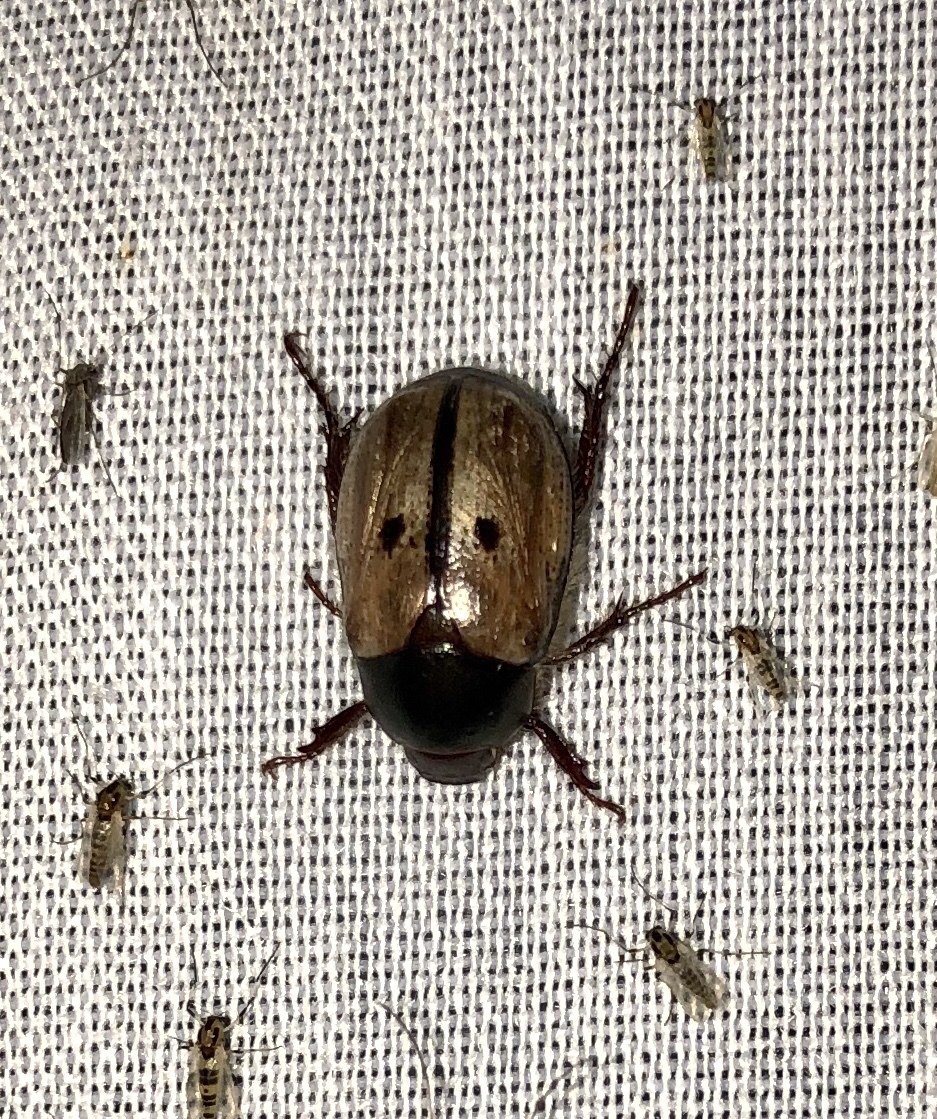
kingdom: Animalia
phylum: Arthropoda
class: Insecta
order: Coleoptera
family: Scarabaeidae
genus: Paranomala
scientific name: Paranomala binotata
